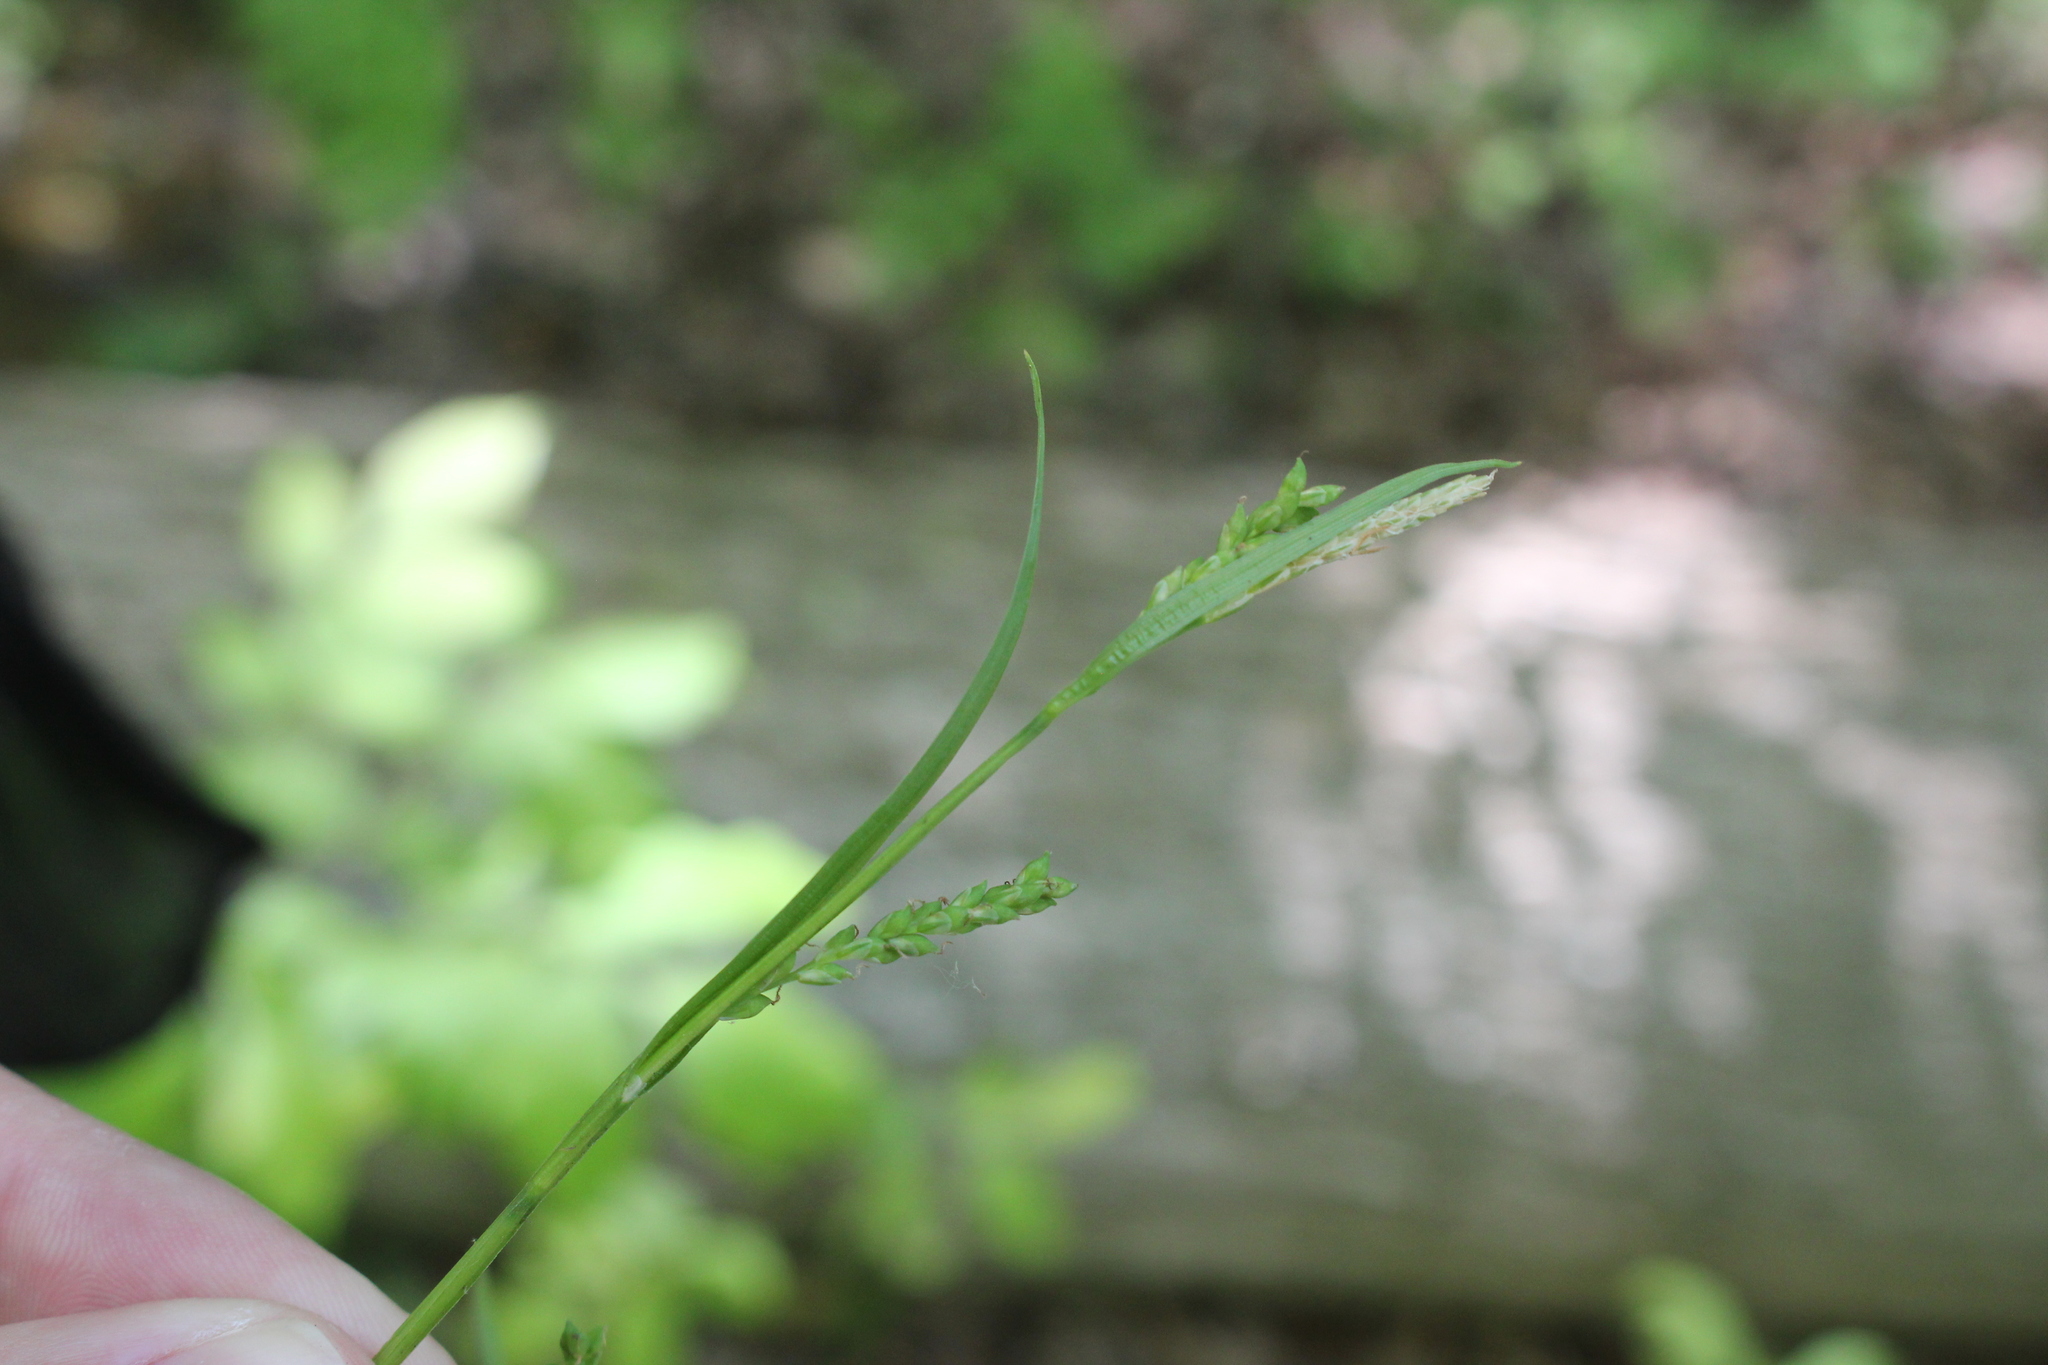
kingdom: Plantae
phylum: Tracheophyta
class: Liliopsida
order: Poales
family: Cyperaceae
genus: Carex
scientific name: Carex leptonervia
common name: Few-nerved wood sedge
